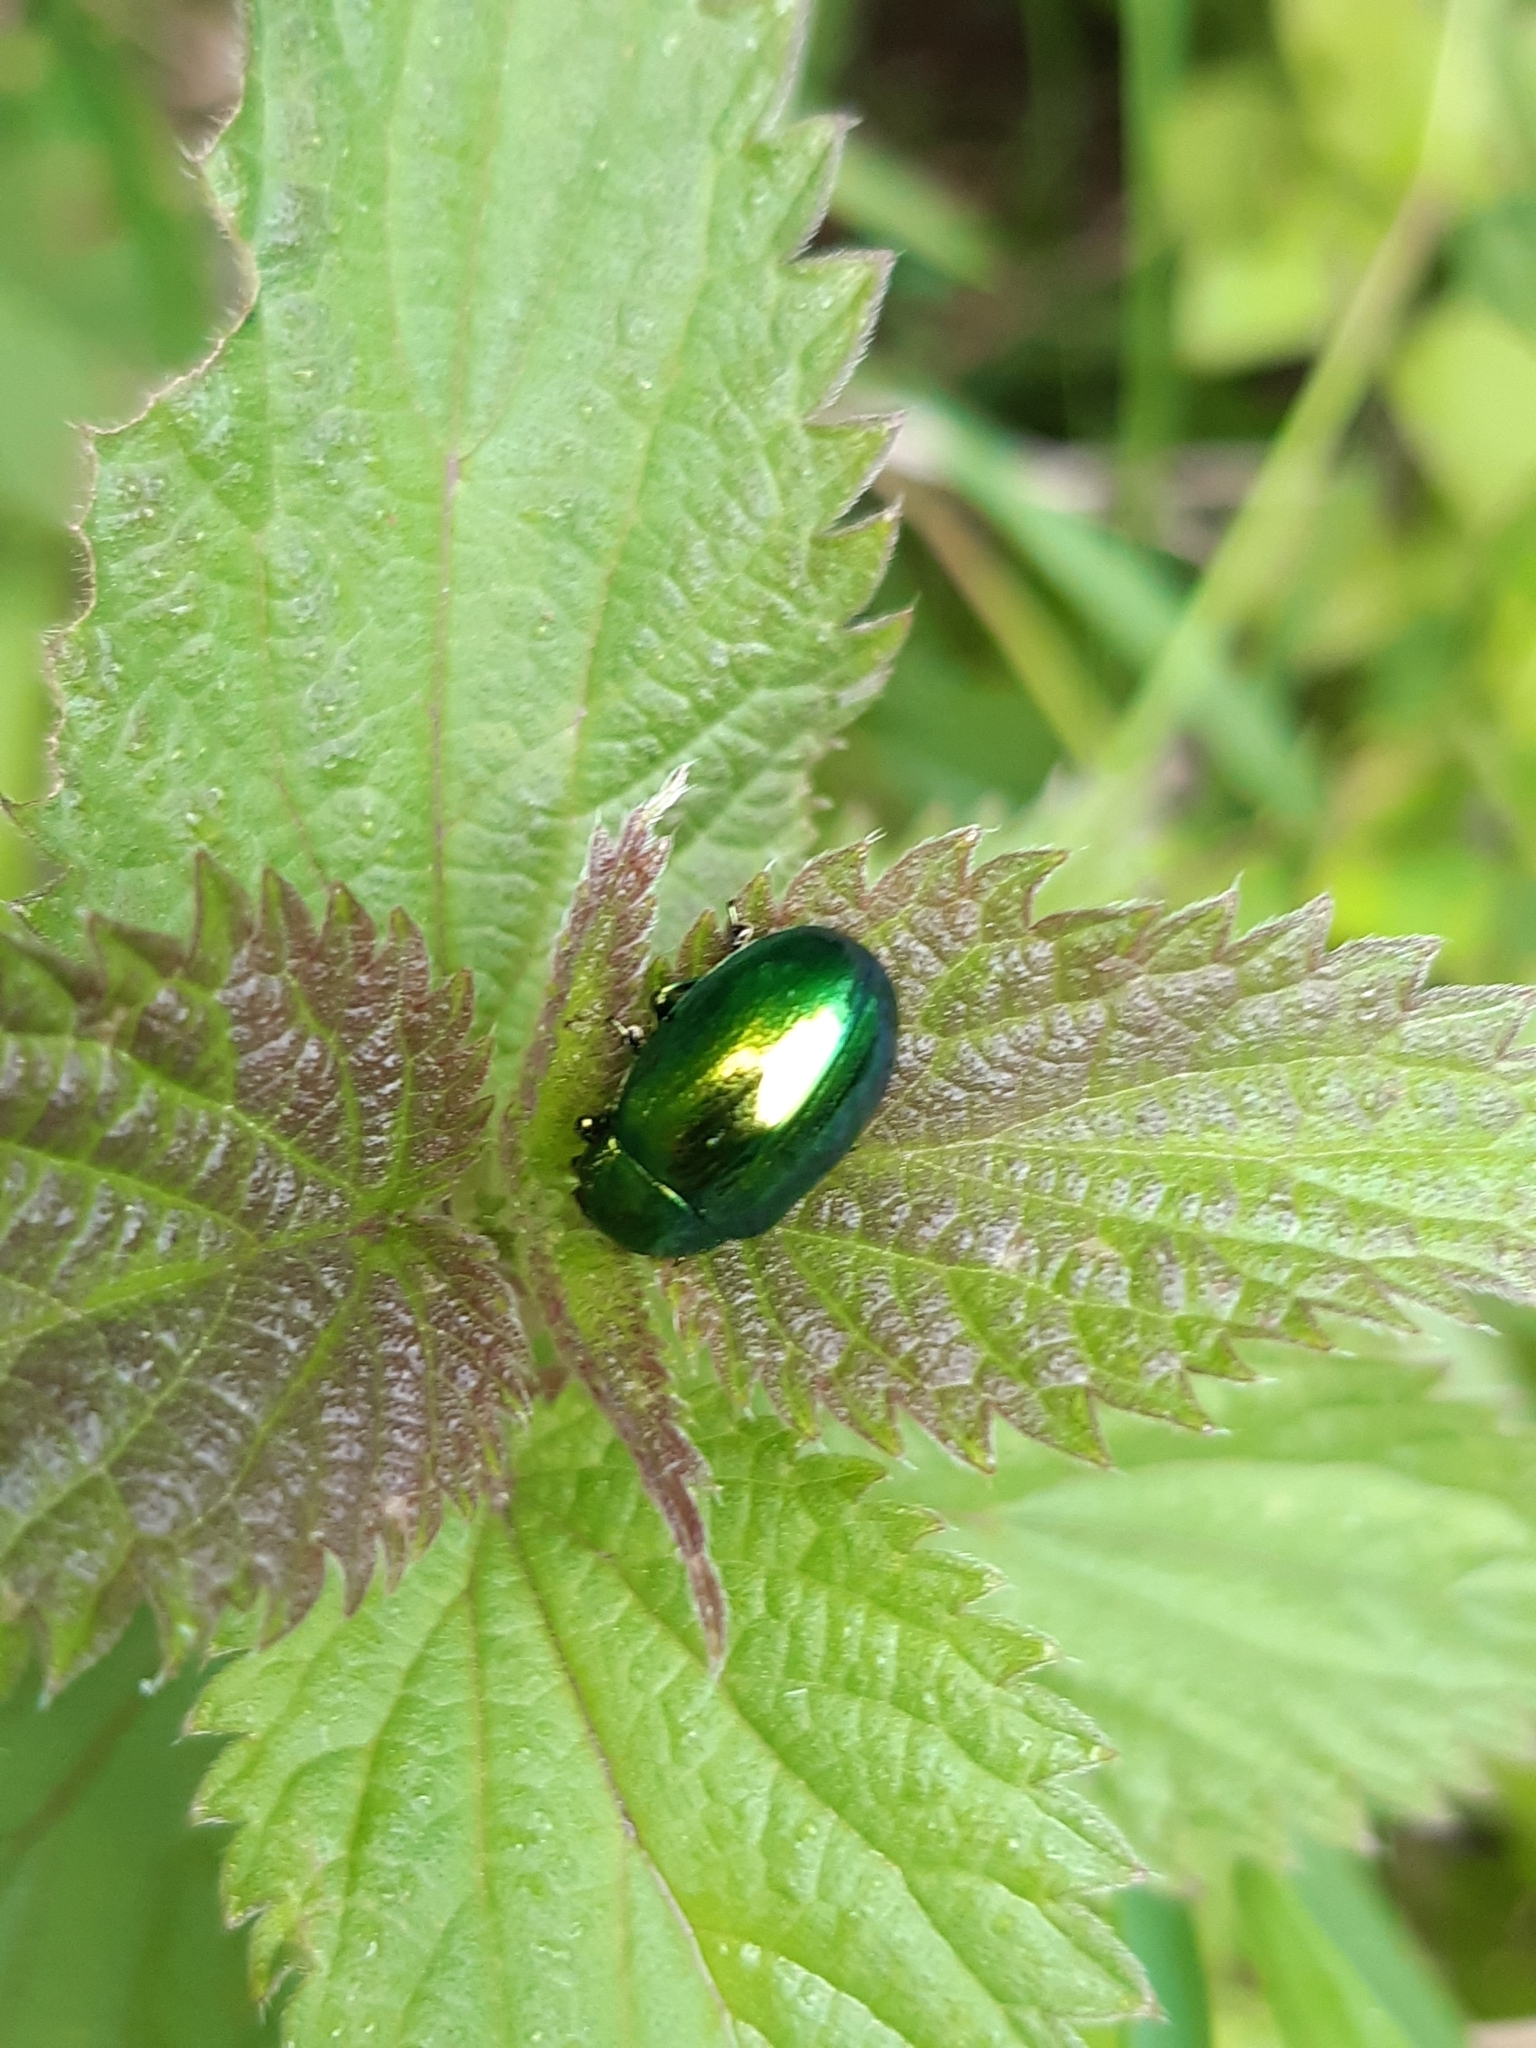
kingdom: Animalia
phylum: Arthropoda
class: Insecta
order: Coleoptera
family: Chrysomelidae
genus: Chrysolina
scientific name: Chrysolina herbacea
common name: Mint leaf beatle
